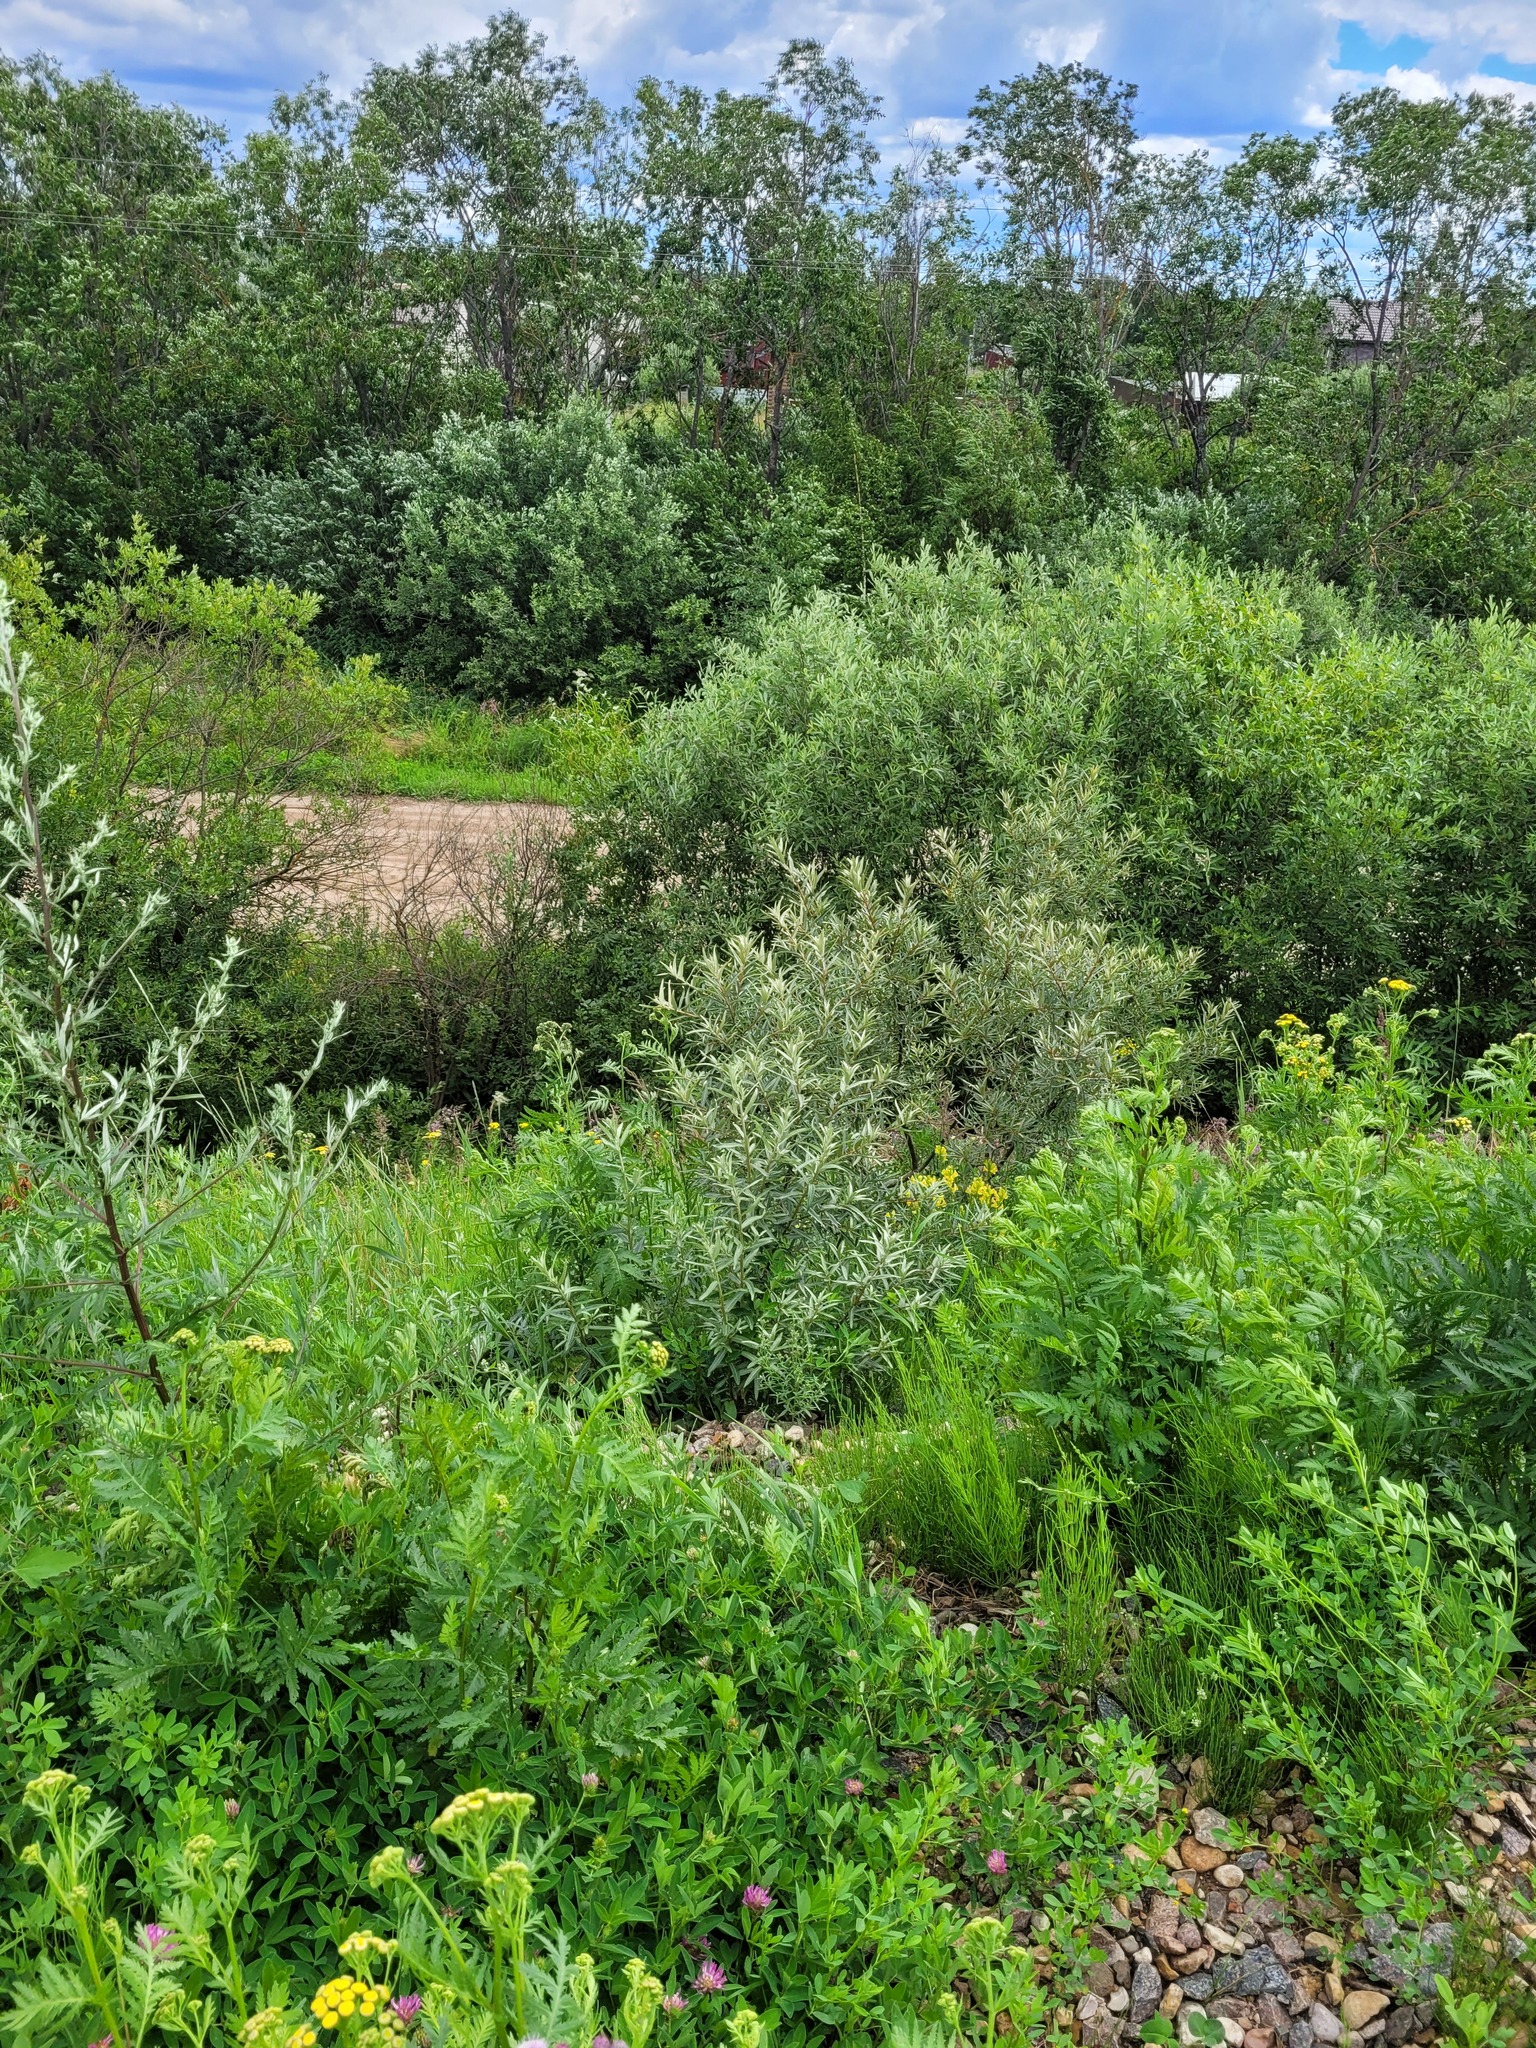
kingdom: Plantae
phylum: Tracheophyta
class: Magnoliopsida
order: Rosales
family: Elaeagnaceae
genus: Hippophae
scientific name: Hippophae rhamnoides
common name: Sea-buckthorn
